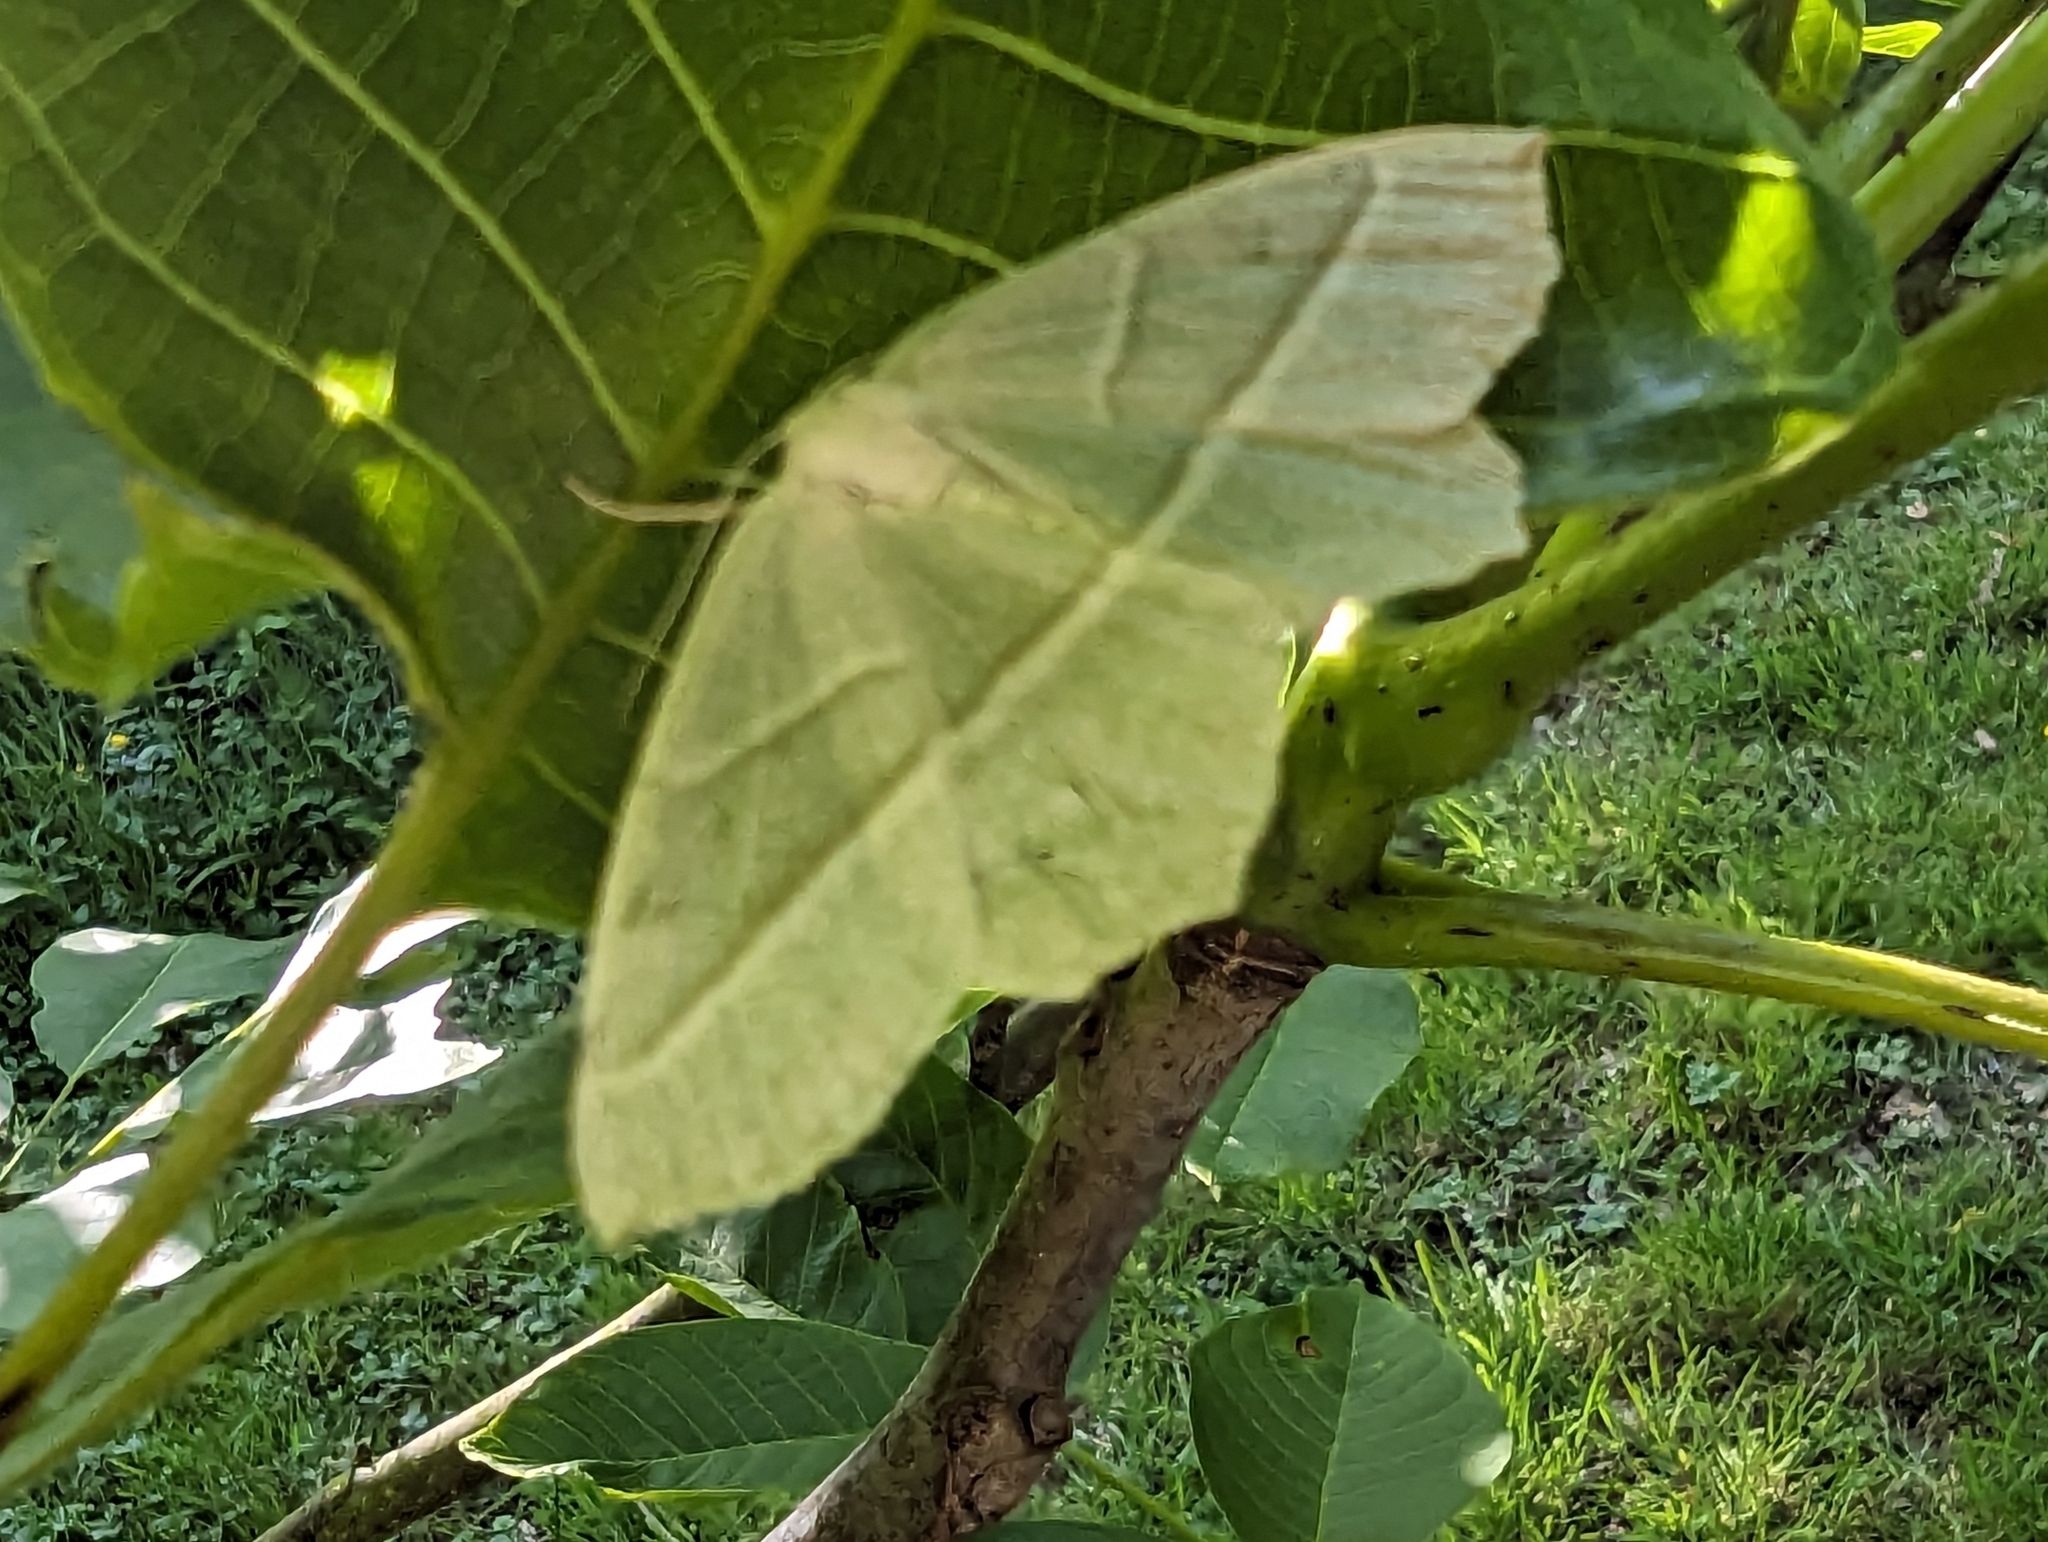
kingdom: Animalia
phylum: Arthropoda
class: Insecta
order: Lepidoptera
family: Geometridae
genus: Campaea
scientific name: Campaea margaritaria
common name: Light emerald
